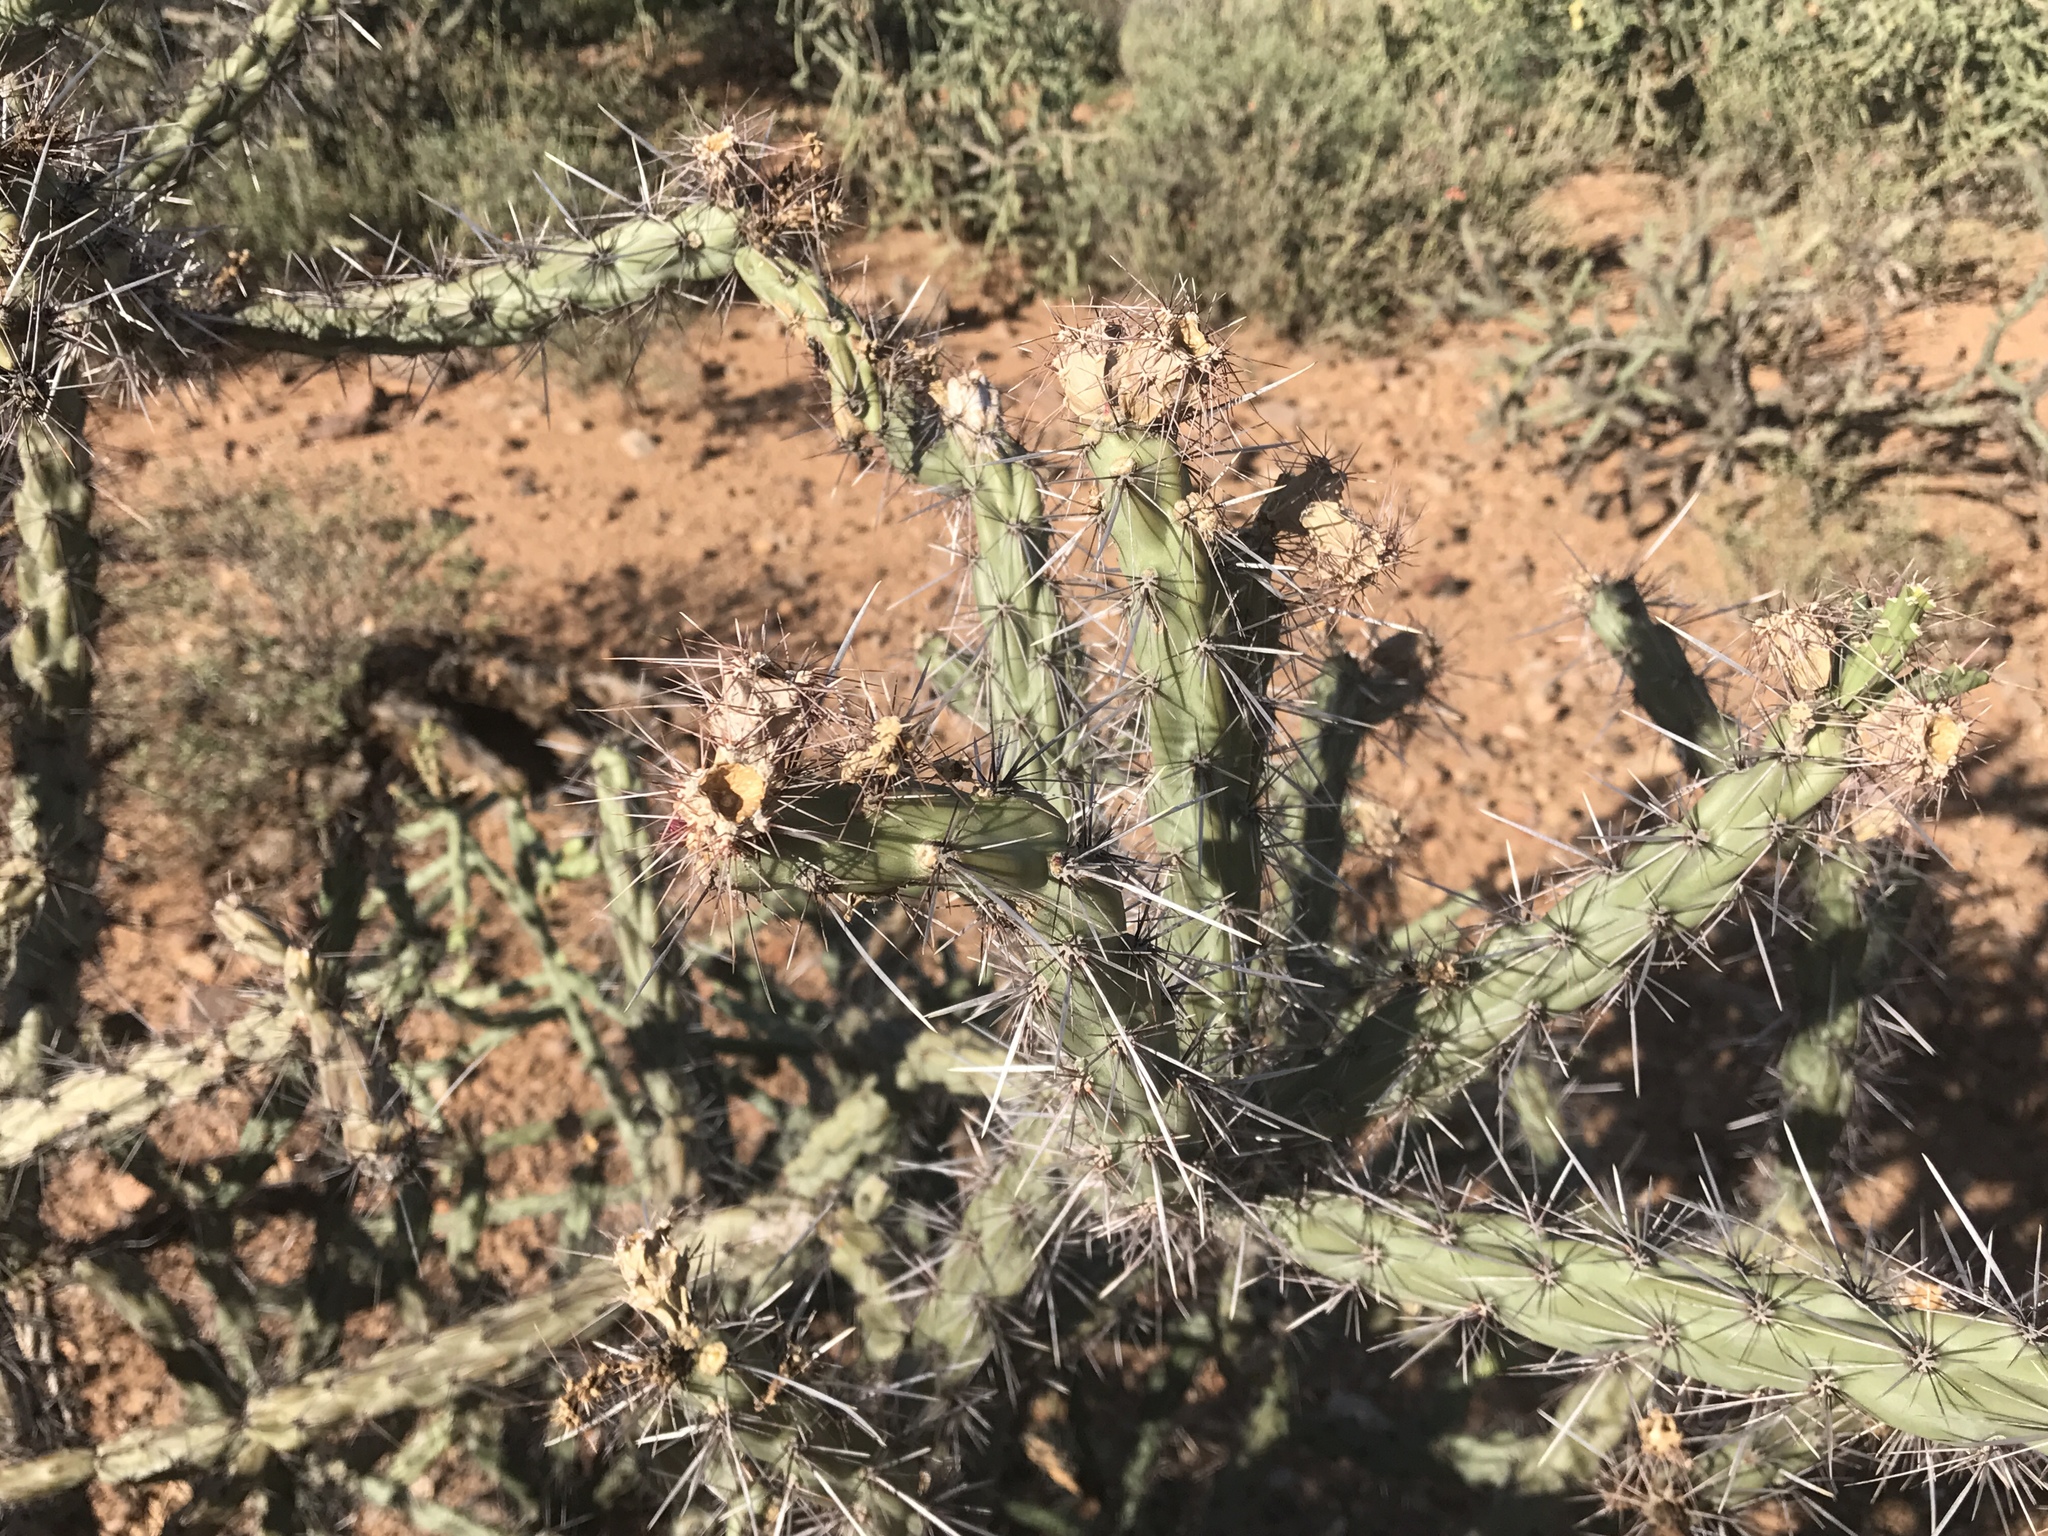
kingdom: Plantae
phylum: Tracheophyta
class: Magnoliopsida
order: Caryophyllales
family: Cactaceae
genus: Cylindropuntia
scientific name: Cylindropuntia acanthocarpa
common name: Buckhorn cholla
